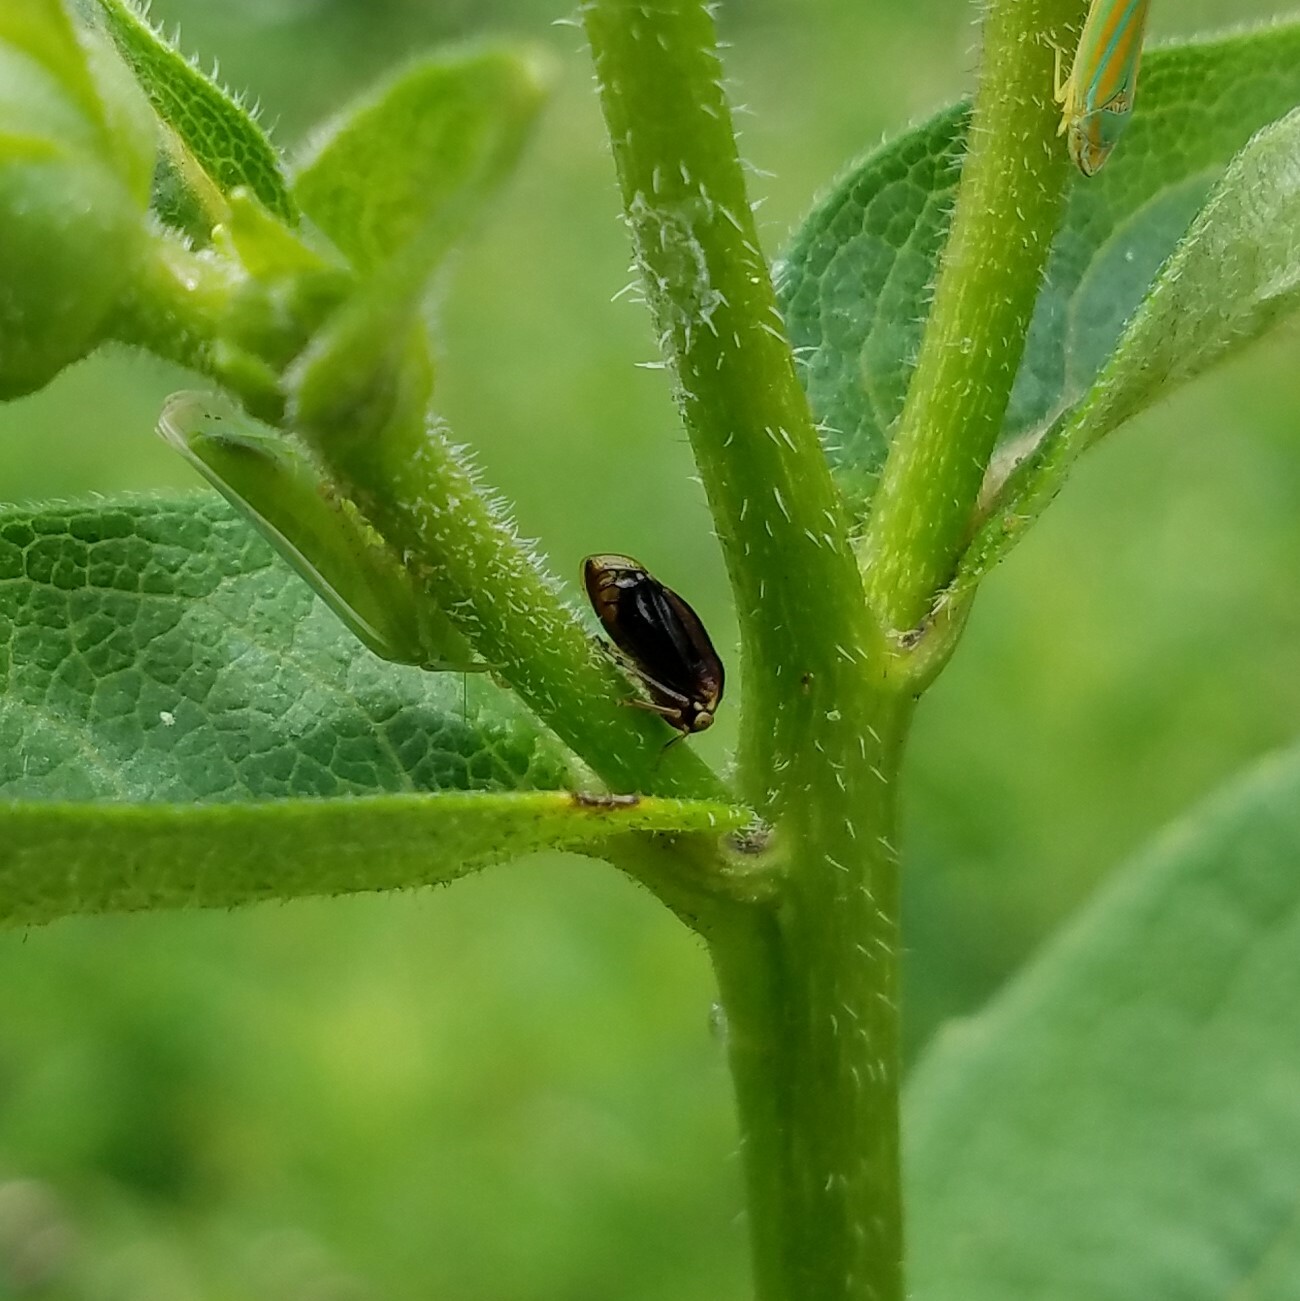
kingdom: Animalia
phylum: Arthropoda
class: Insecta
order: Hemiptera
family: Membracidae
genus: Acutalis
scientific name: Acutalis tartarea
